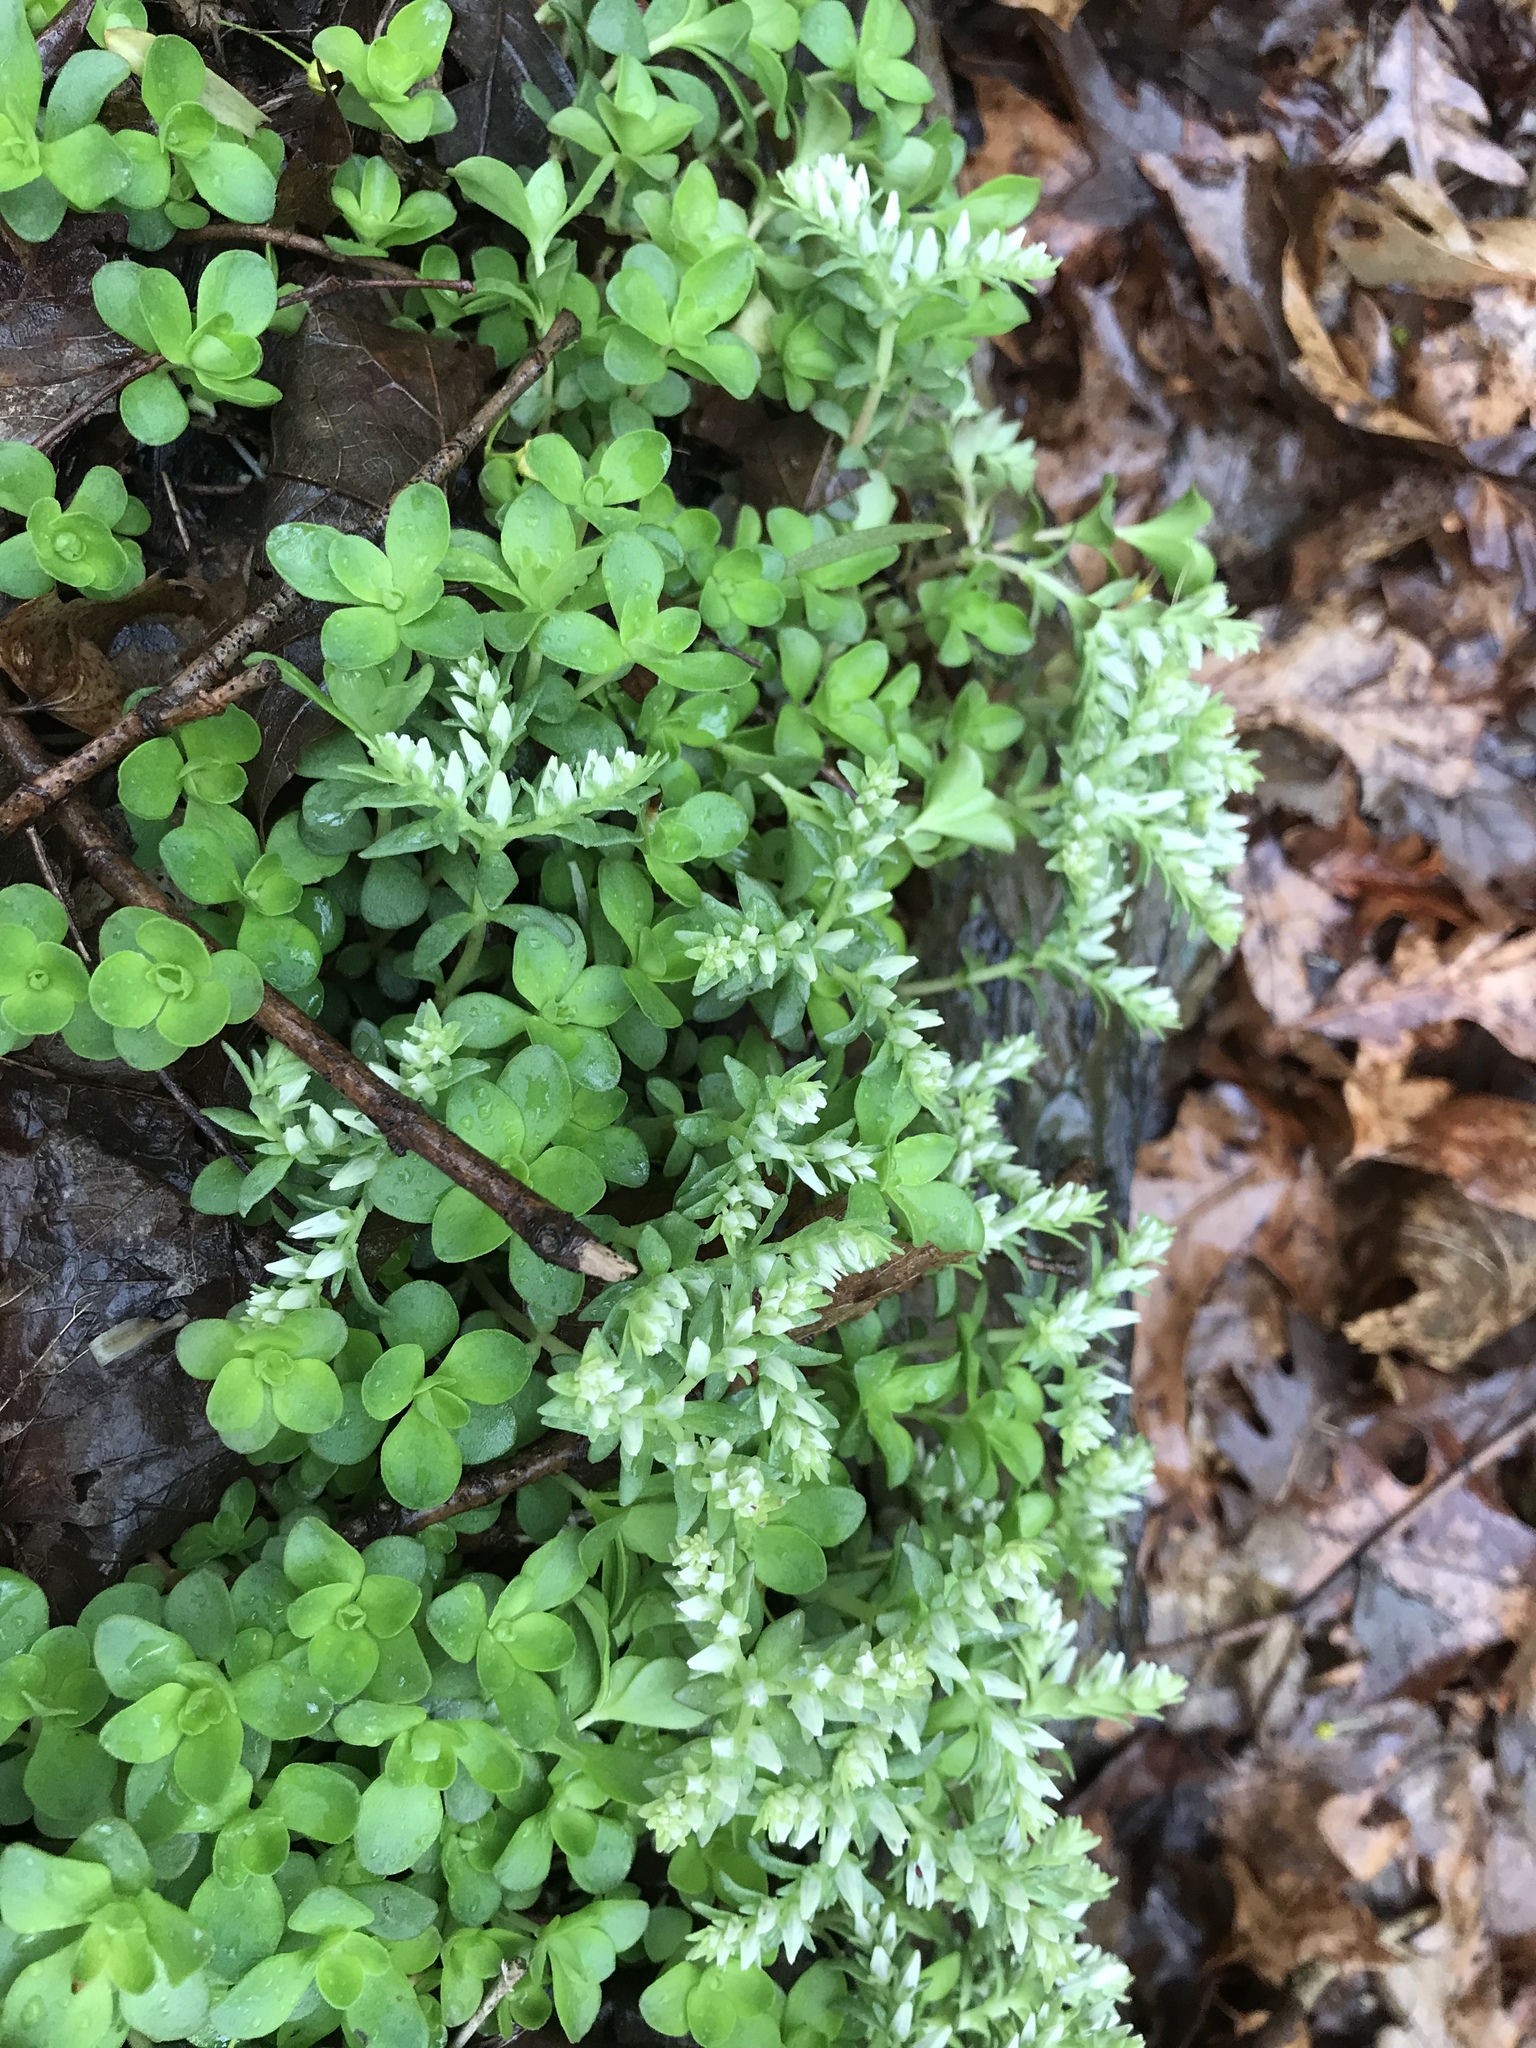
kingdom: Plantae
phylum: Tracheophyta
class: Magnoliopsida
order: Saxifragales
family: Crassulaceae
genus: Sedum
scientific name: Sedum ternatum
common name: Wild stonecrop
